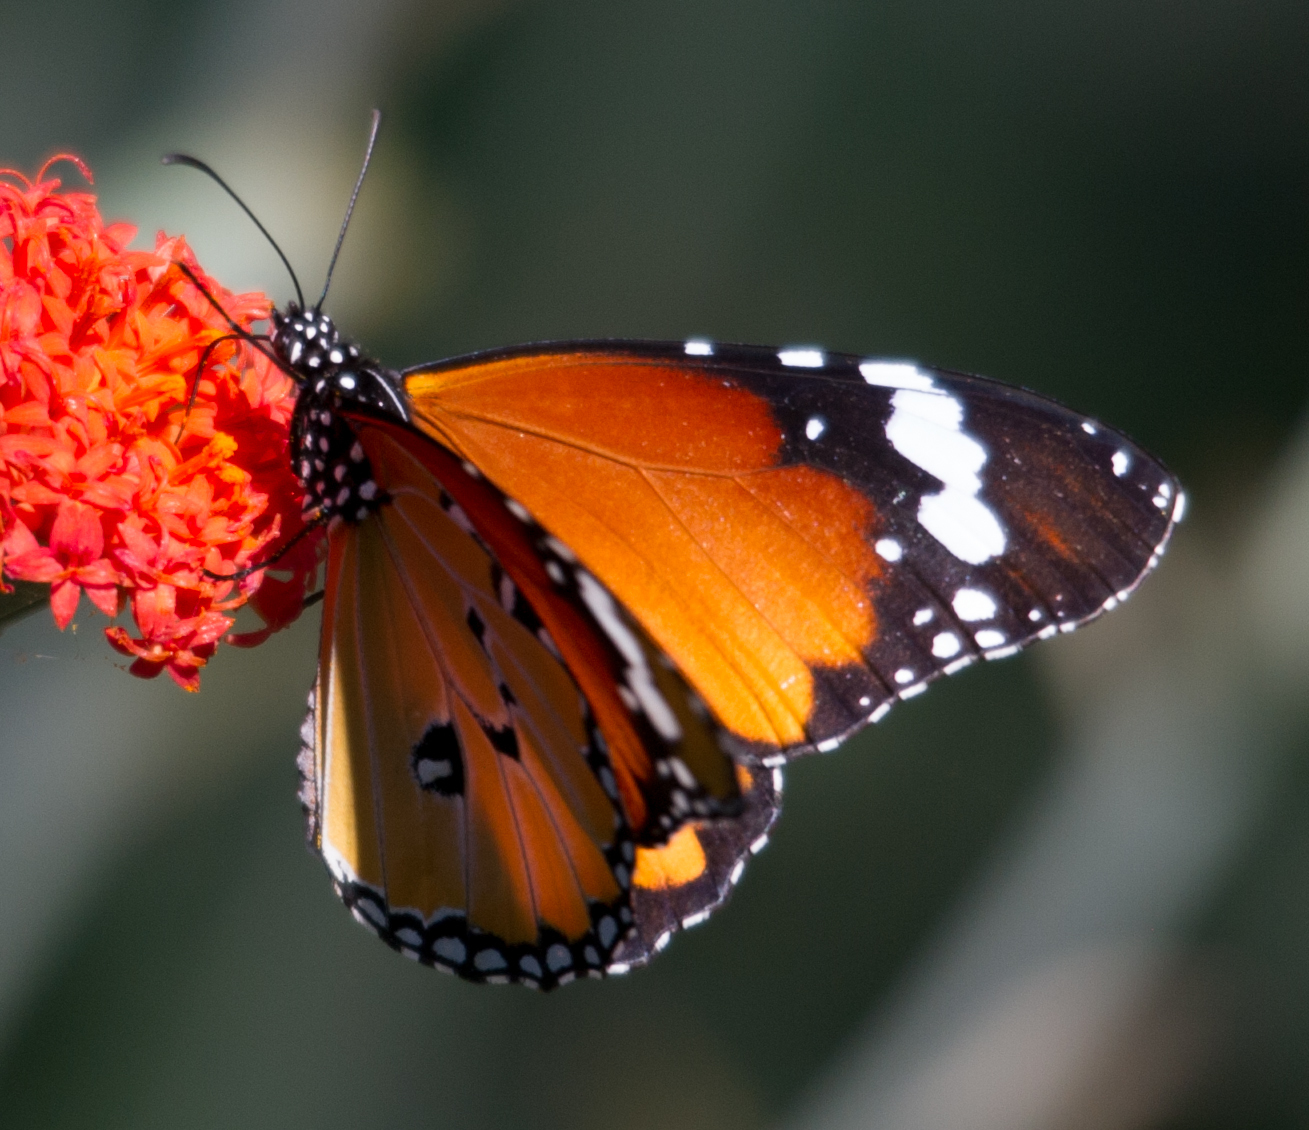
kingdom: Animalia
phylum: Arthropoda
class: Insecta
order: Lepidoptera
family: Nymphalidae
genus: Danaus
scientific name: Danaus chrysippus
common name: Plain tiger
